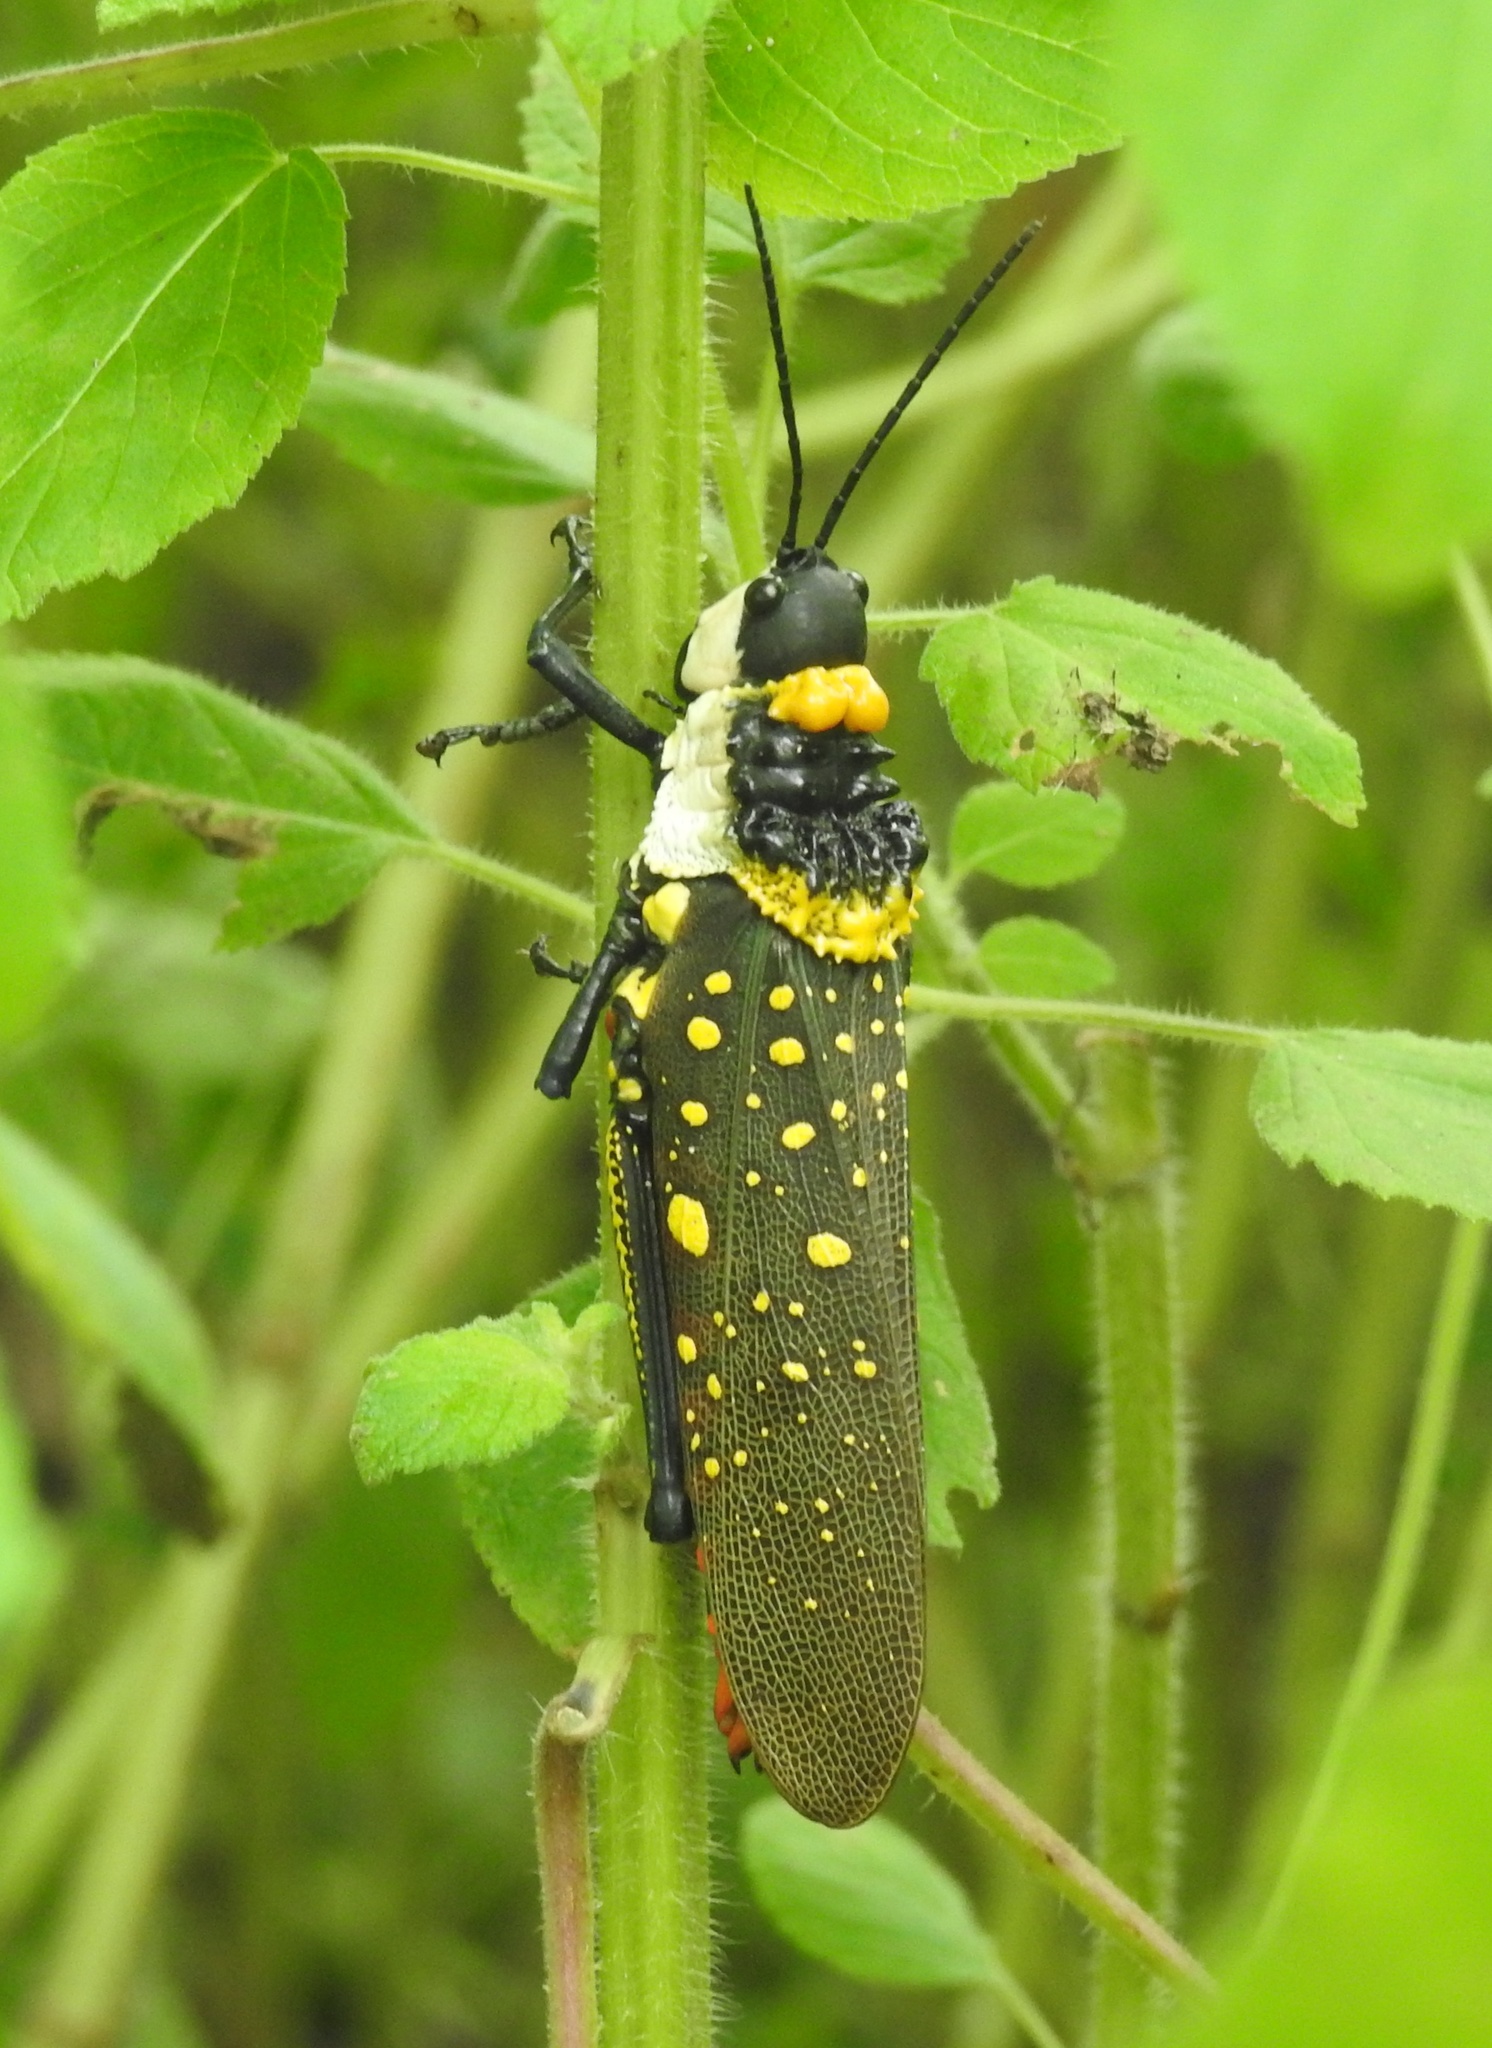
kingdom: Animalia
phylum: Arthropoda
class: Insecta
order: Orthoptera
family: Pyrgomorphidae
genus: Aularches
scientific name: Aularches miliaris
